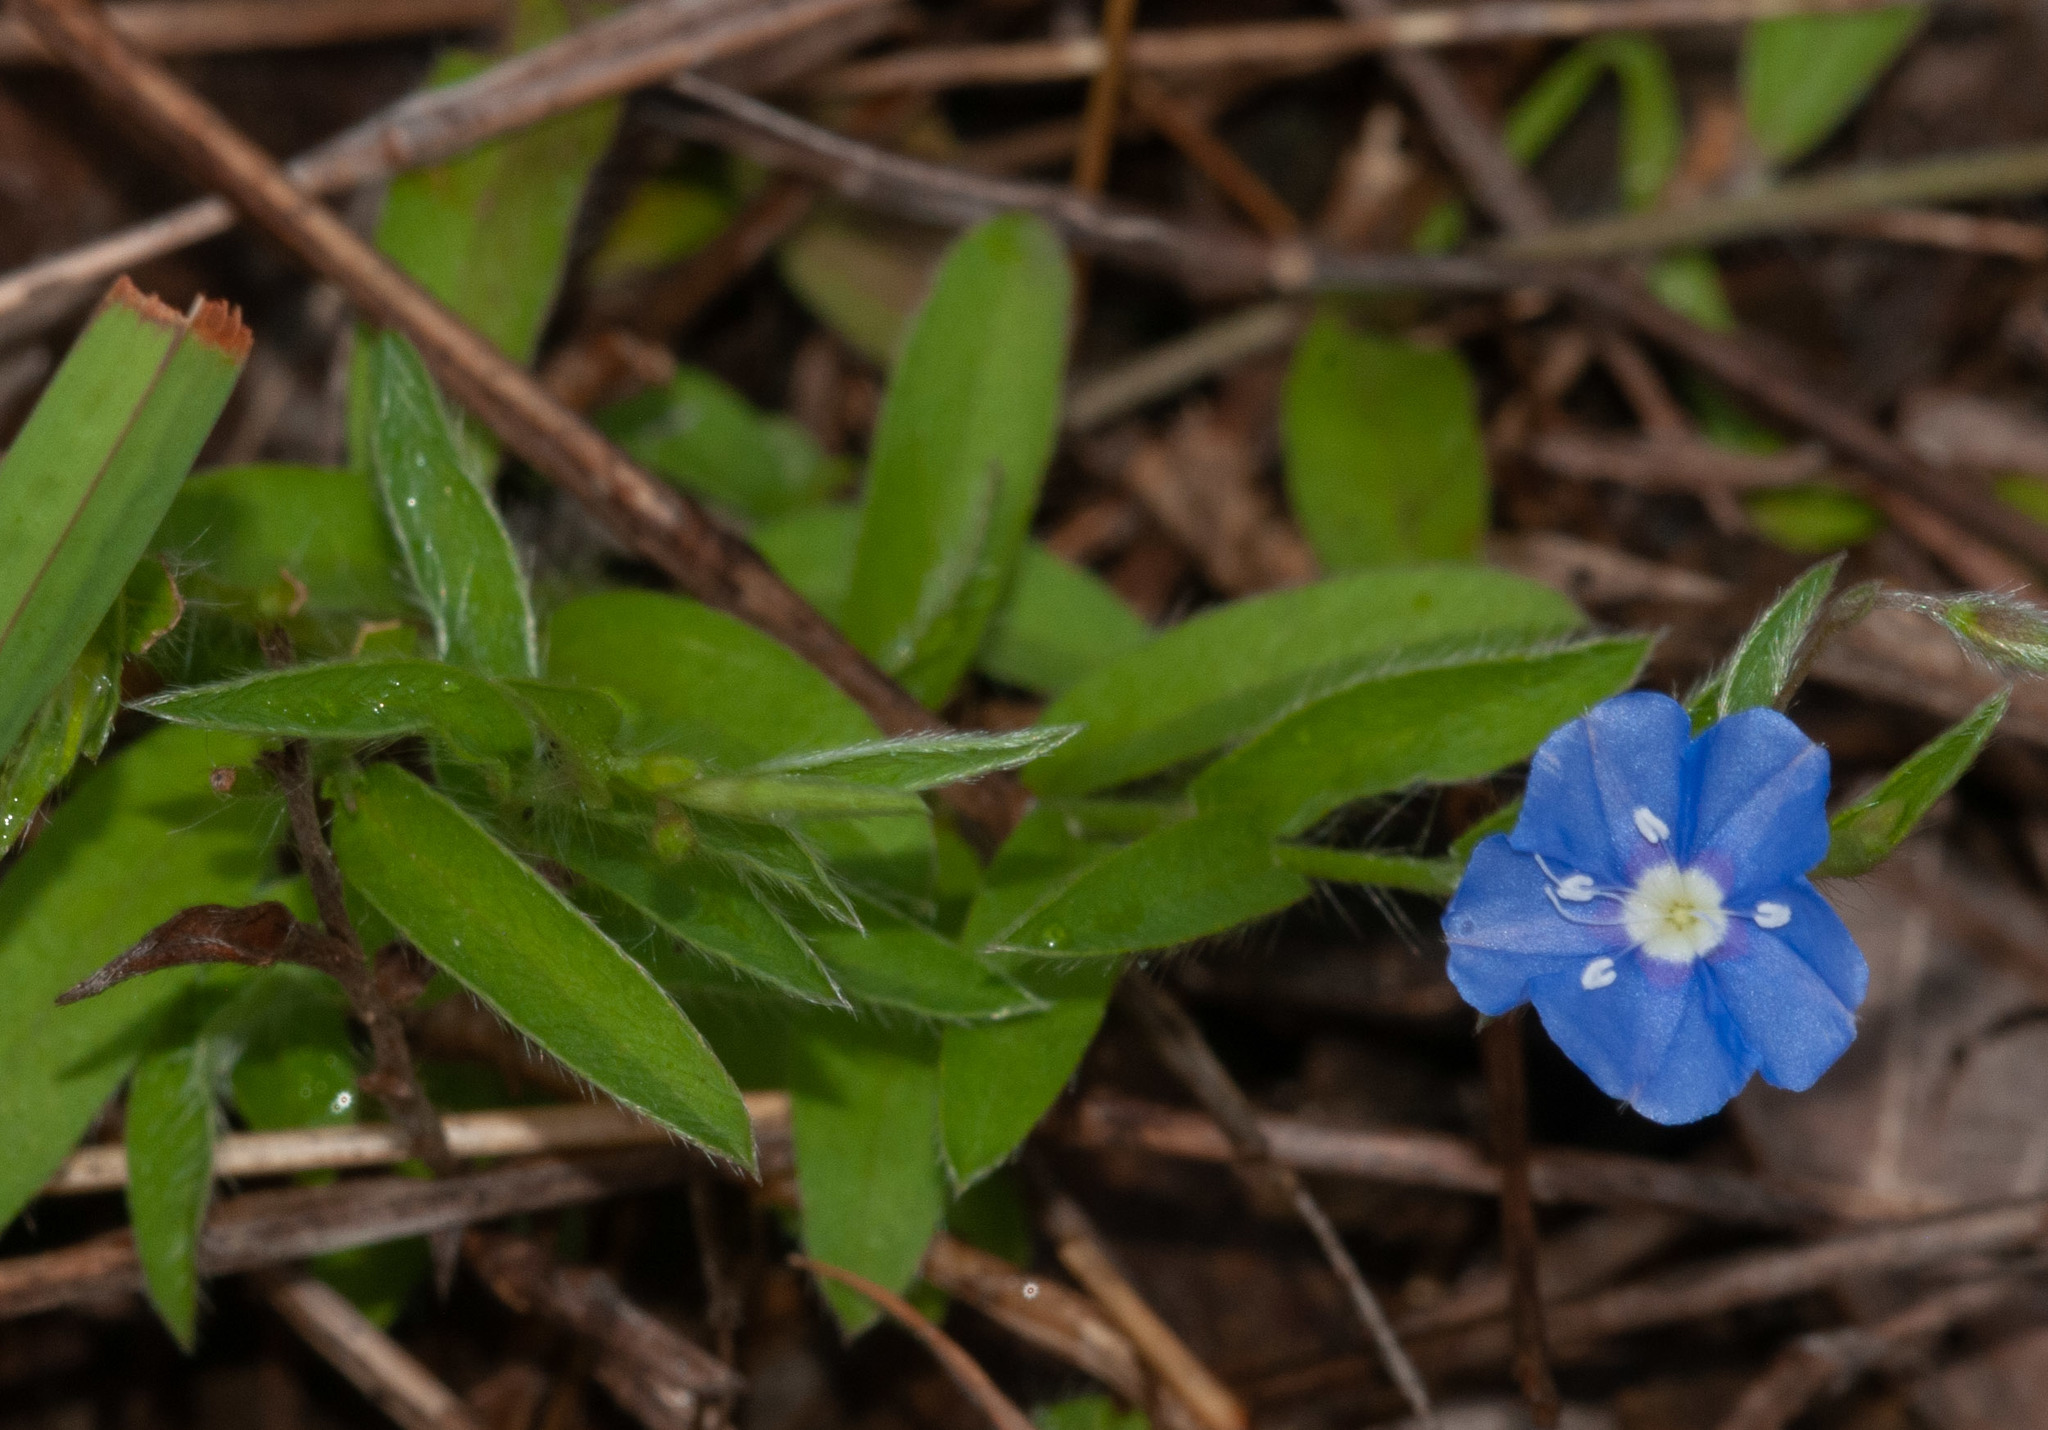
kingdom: Plantae
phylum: Tracheophyta
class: Magnoliopsida
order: Solanales
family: Convolvulaceae
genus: Evolvulus
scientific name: Evolvulus alsinoides
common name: Slender dwarf morning-glory
